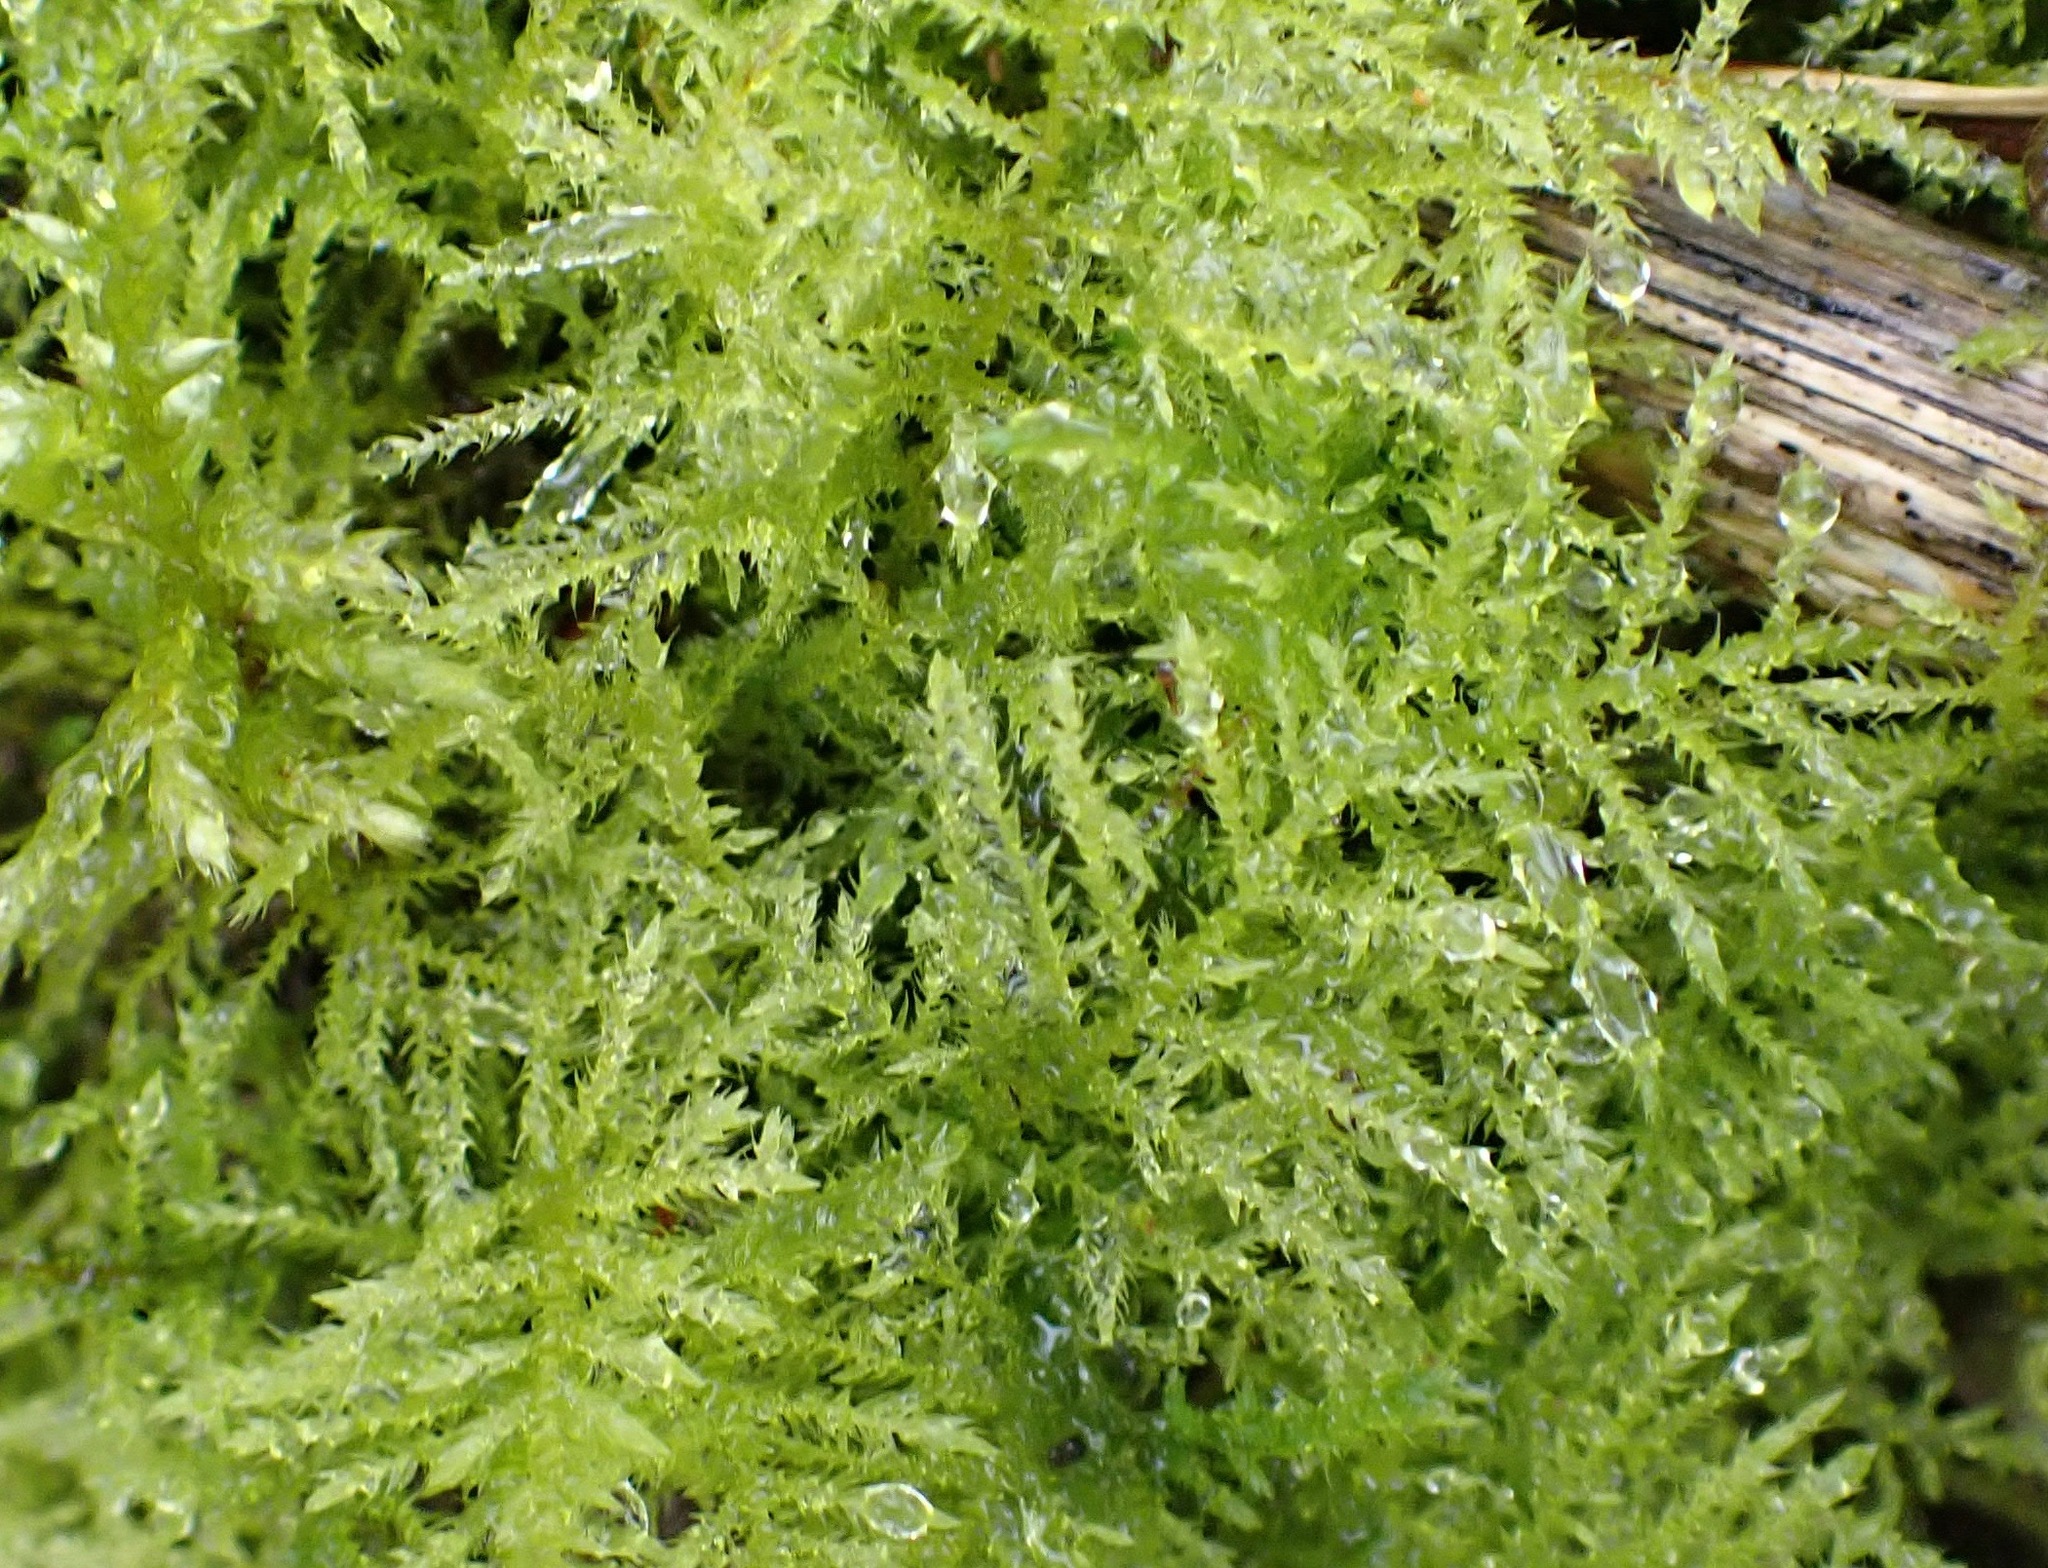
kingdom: Plantae
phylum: Bryophyta
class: Bryopsida
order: Hypnales
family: Brachytheciaceae
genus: Kindbergia
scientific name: Kindbergia praelonga
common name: Slender beaked moss
